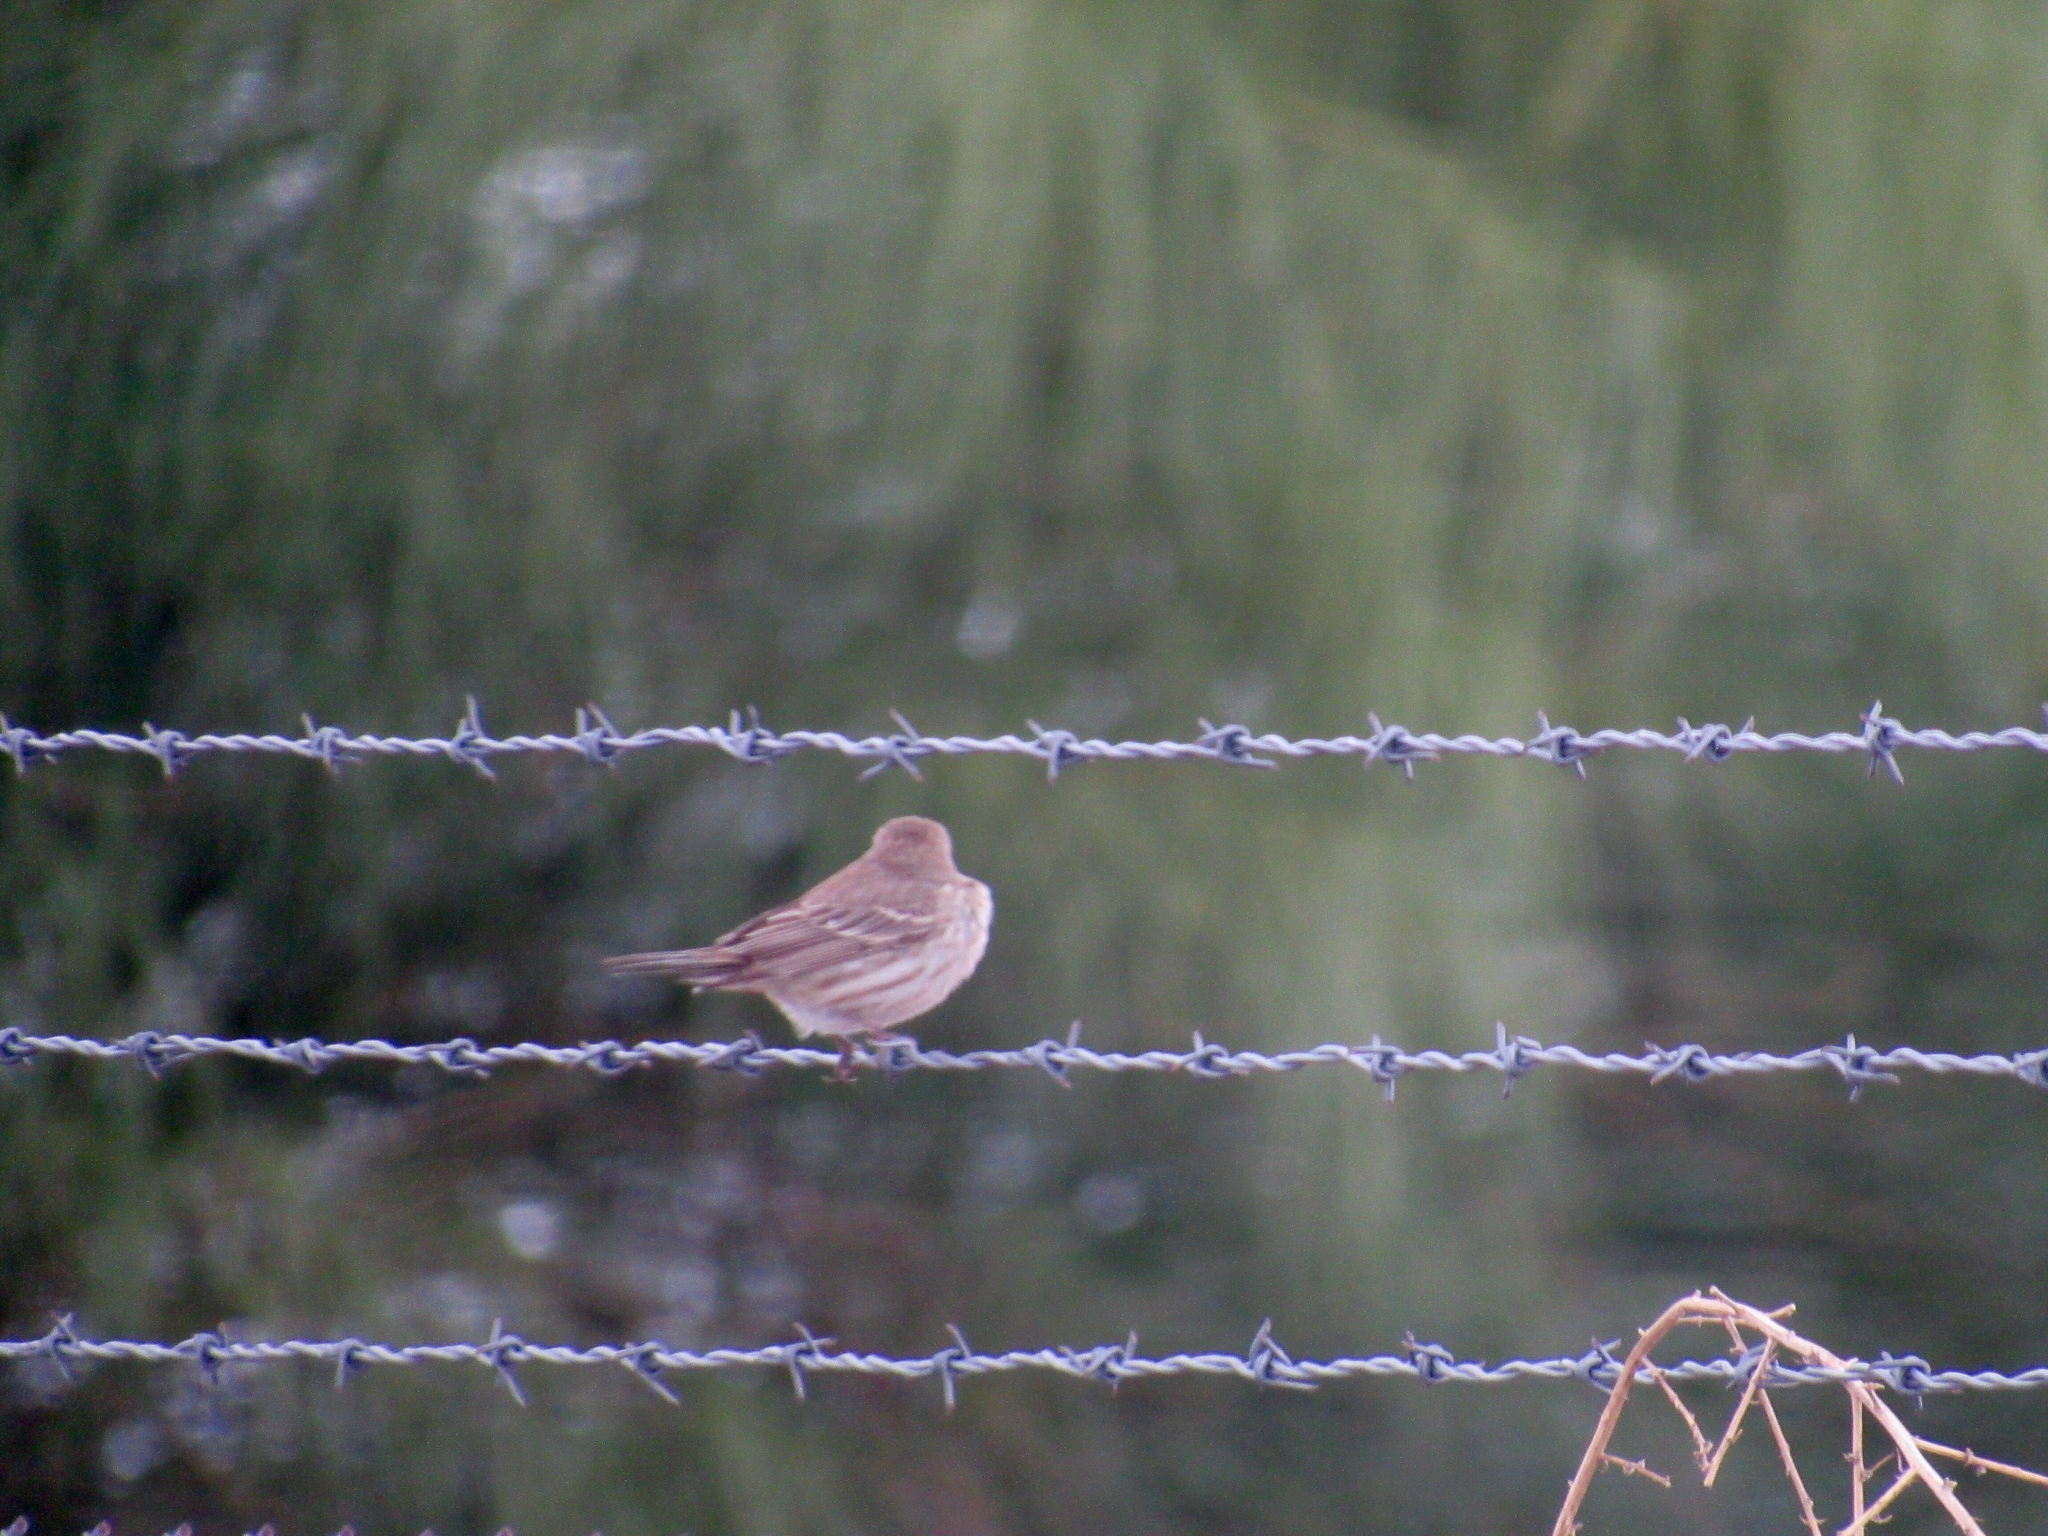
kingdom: Animalia
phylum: Chordata
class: Aves
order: Passeriformes
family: Fringillidae
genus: Haemorhous
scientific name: Haemorhous mexicanus
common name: House finch
